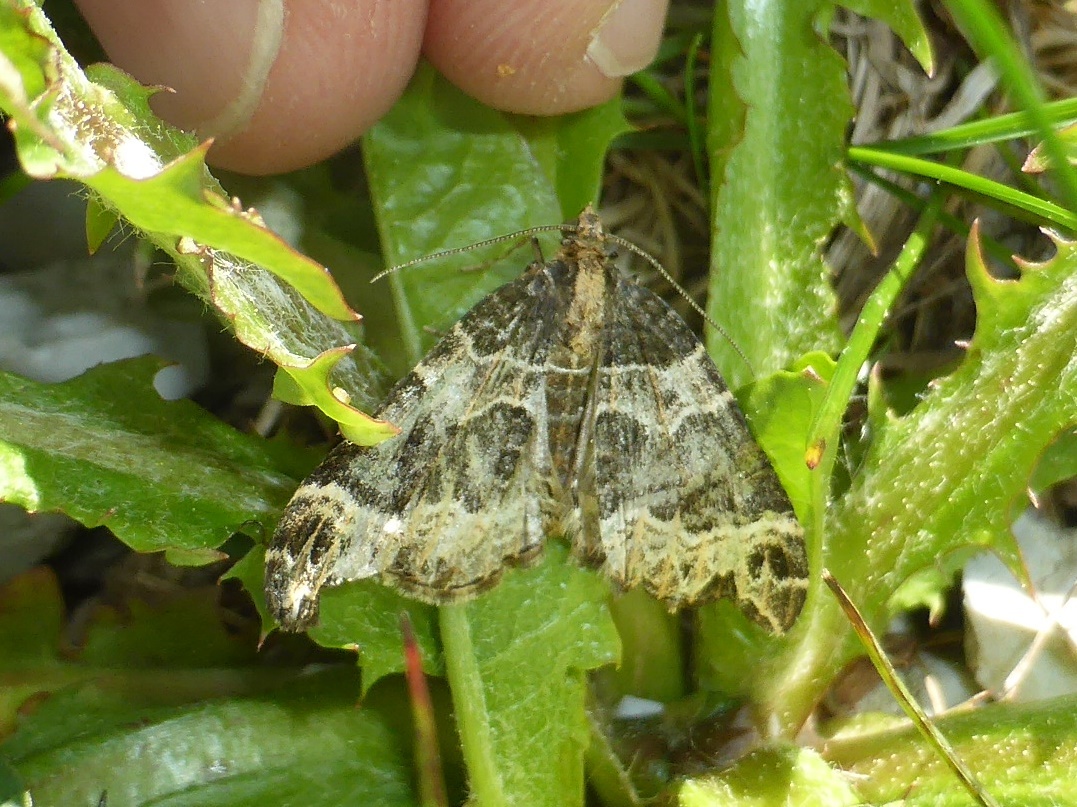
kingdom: Animalia
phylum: Arthropoda
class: Insecta
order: Lepidoptera
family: Geometridae
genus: Ecliptopera
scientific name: Ecliptopera silaceata
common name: Small phoenix
